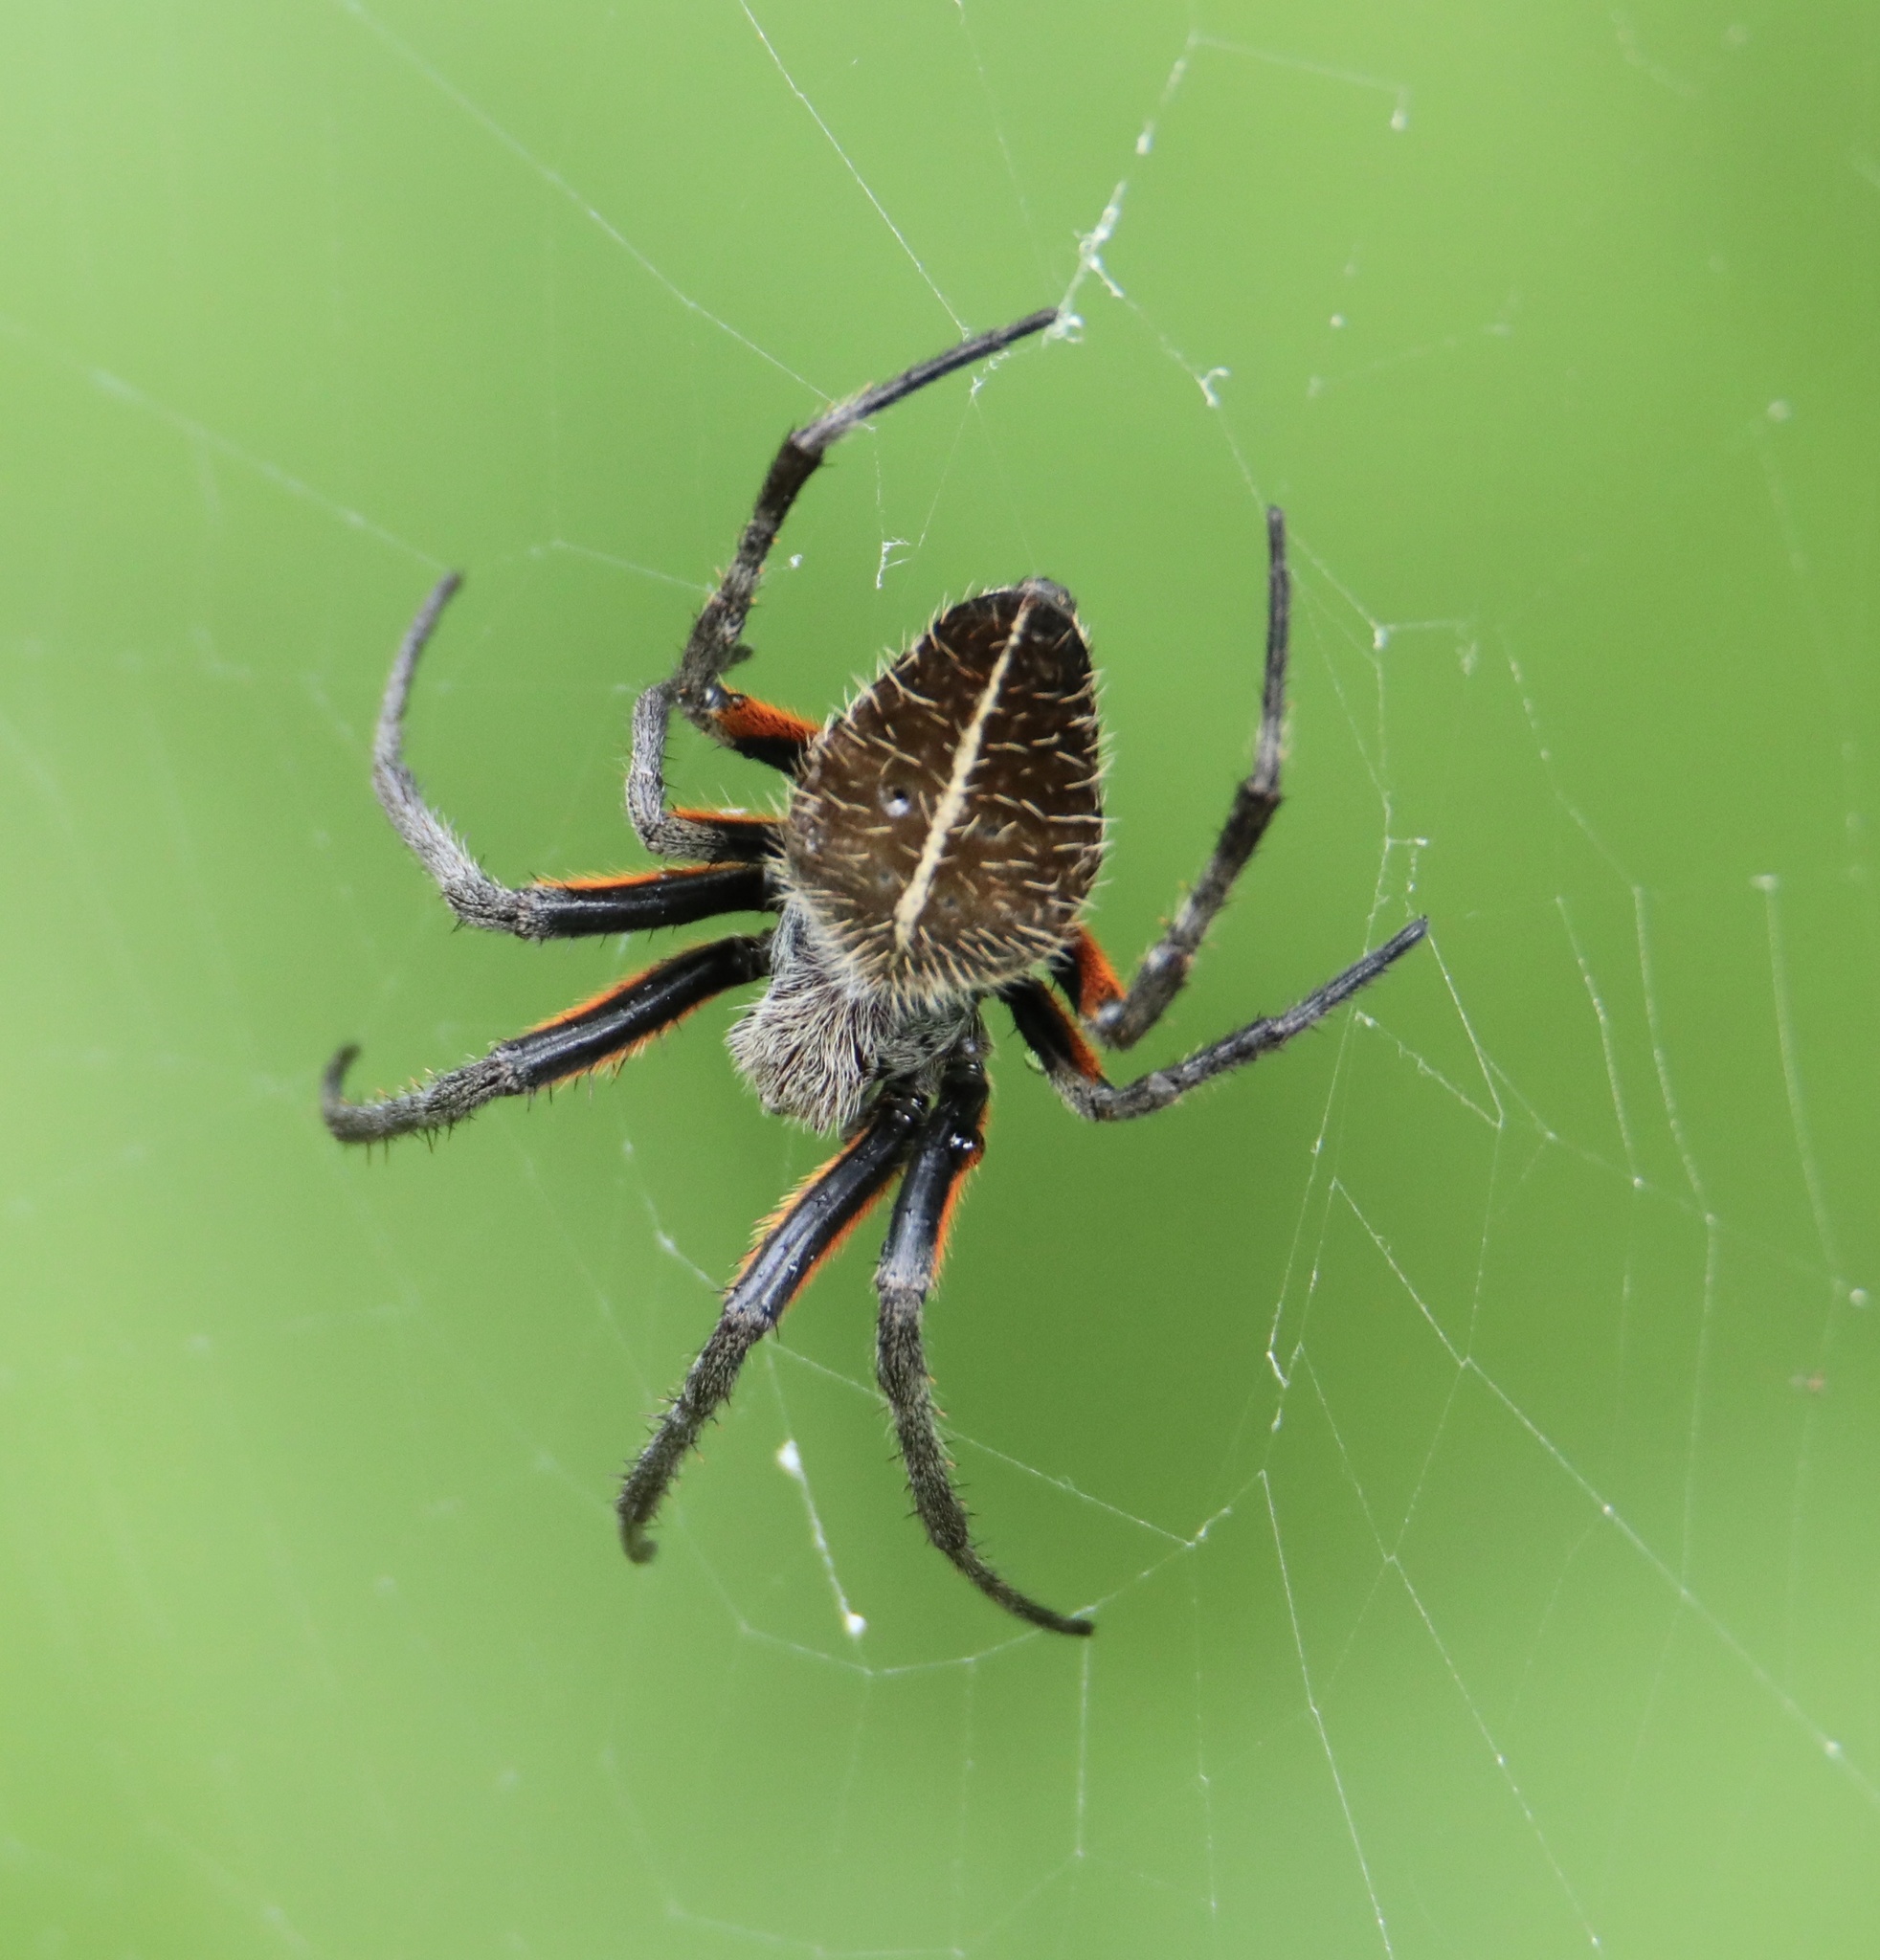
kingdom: Animalia
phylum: Arthropoda
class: Arachnida
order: Araneae
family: Araneidae
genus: Eriophora
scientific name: Eriophora fuliginea
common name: Orb weavers
